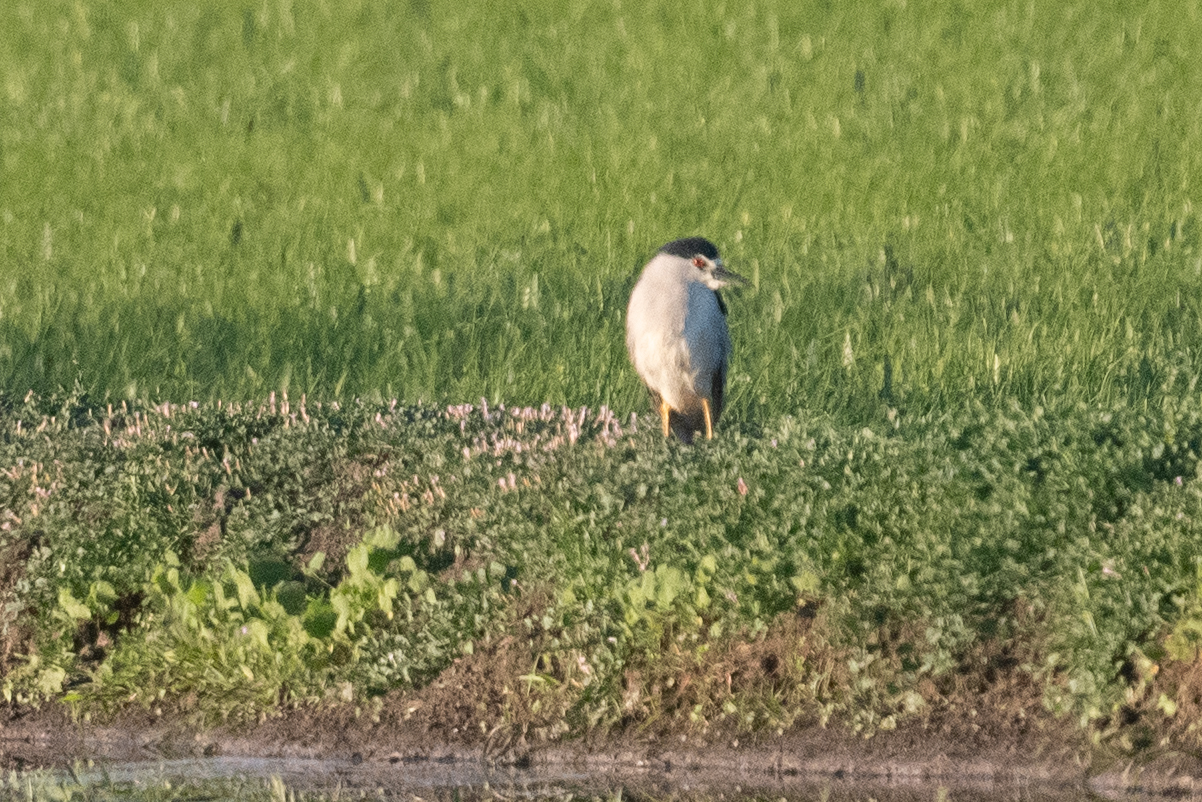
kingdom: Animalia
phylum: Chordata
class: Aves
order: Pelecaniformes
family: Ardeidae
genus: Nycticorax
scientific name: Nycticorax nycticorax
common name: Black-crowned night heron
